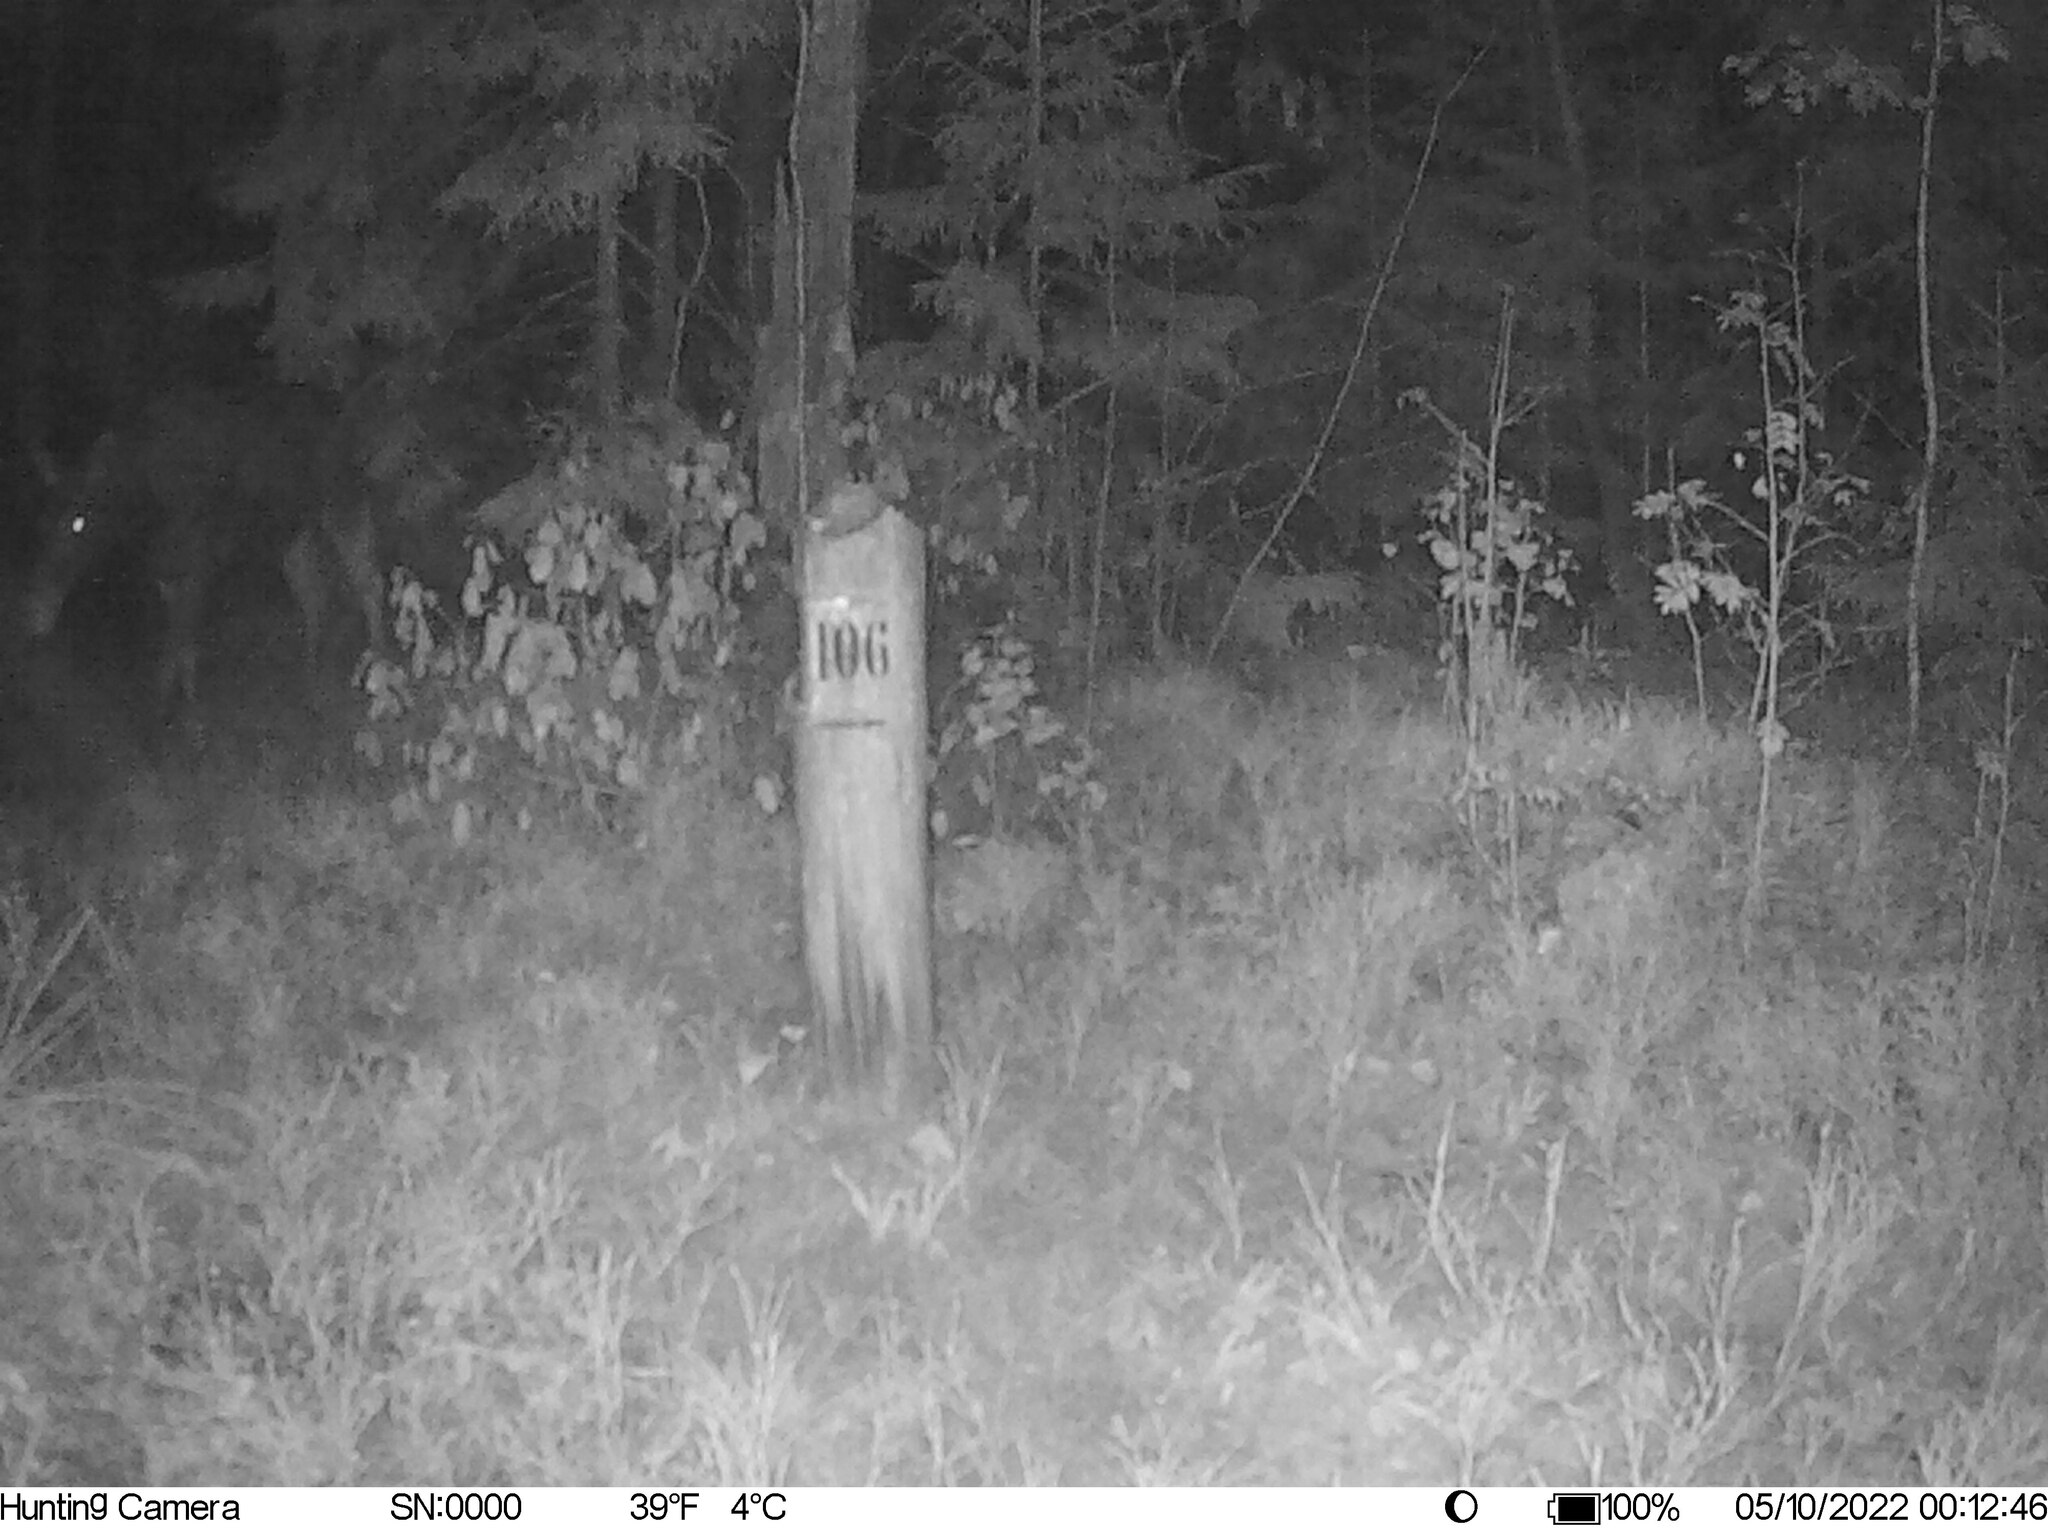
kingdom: Animalia
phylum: Chordata
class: Mammalia
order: Artiodactyla
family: Cervidae
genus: Alces
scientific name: Alces alces
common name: Moose
